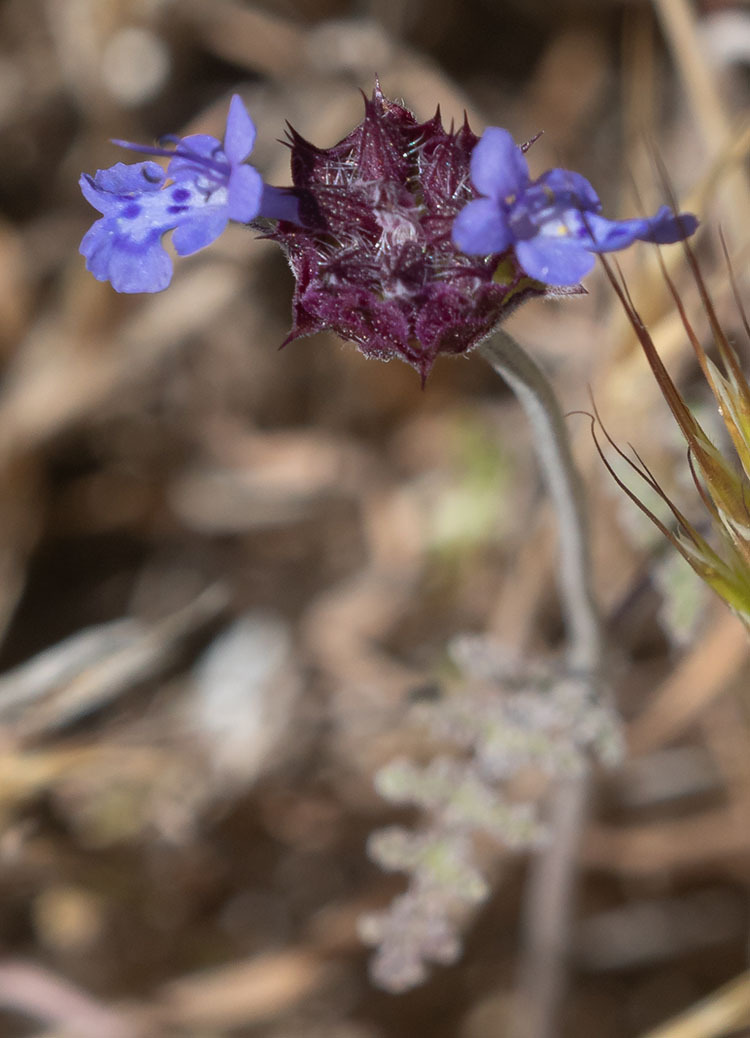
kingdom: Plantae
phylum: Tracheophyta
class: Magnoliopsida
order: Lamiales
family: Lamiaceae
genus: Salvia
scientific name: Salvia columbariae
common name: Chia
